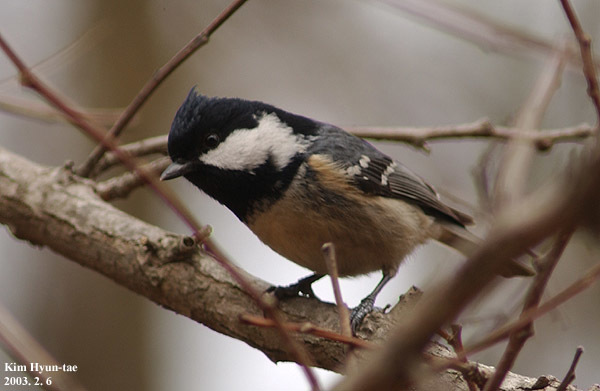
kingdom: Animalia
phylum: Chordata
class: Aves
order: Passeriformes
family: Paridae
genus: Periparus
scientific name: Periparus ater
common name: Coal tit
